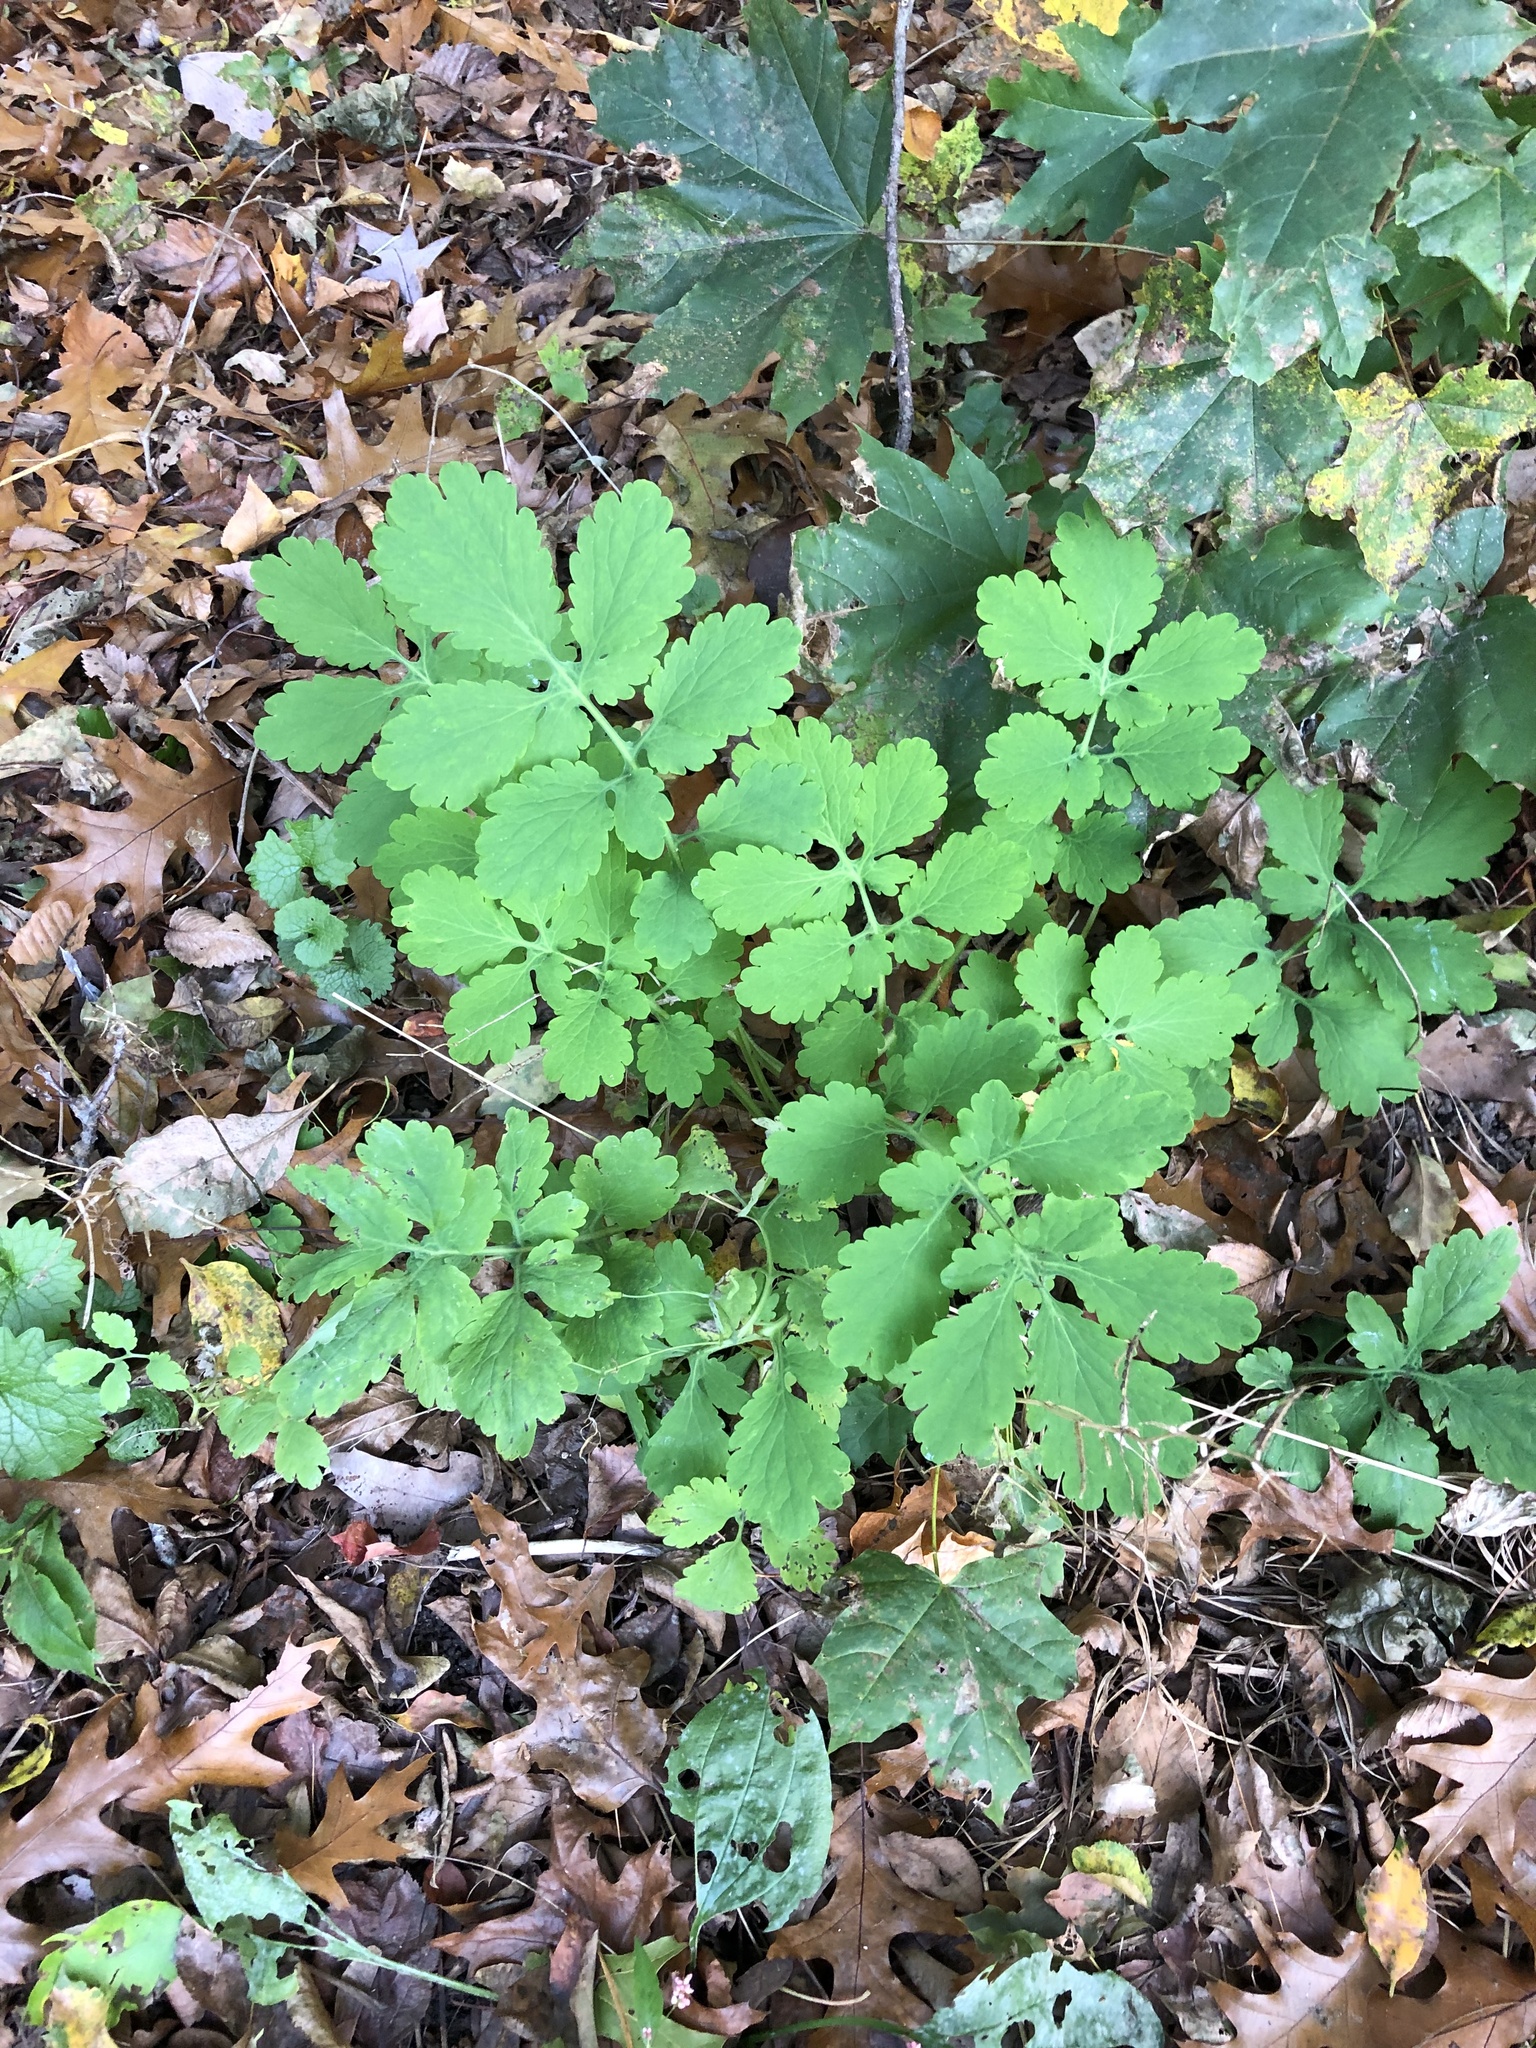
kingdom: Plantae
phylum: Tracheophyta
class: Magnoliopsida
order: Ranunculales
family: Papaveraceae
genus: Chelidonium
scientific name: Chelidonium majus
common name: Greater celandine
